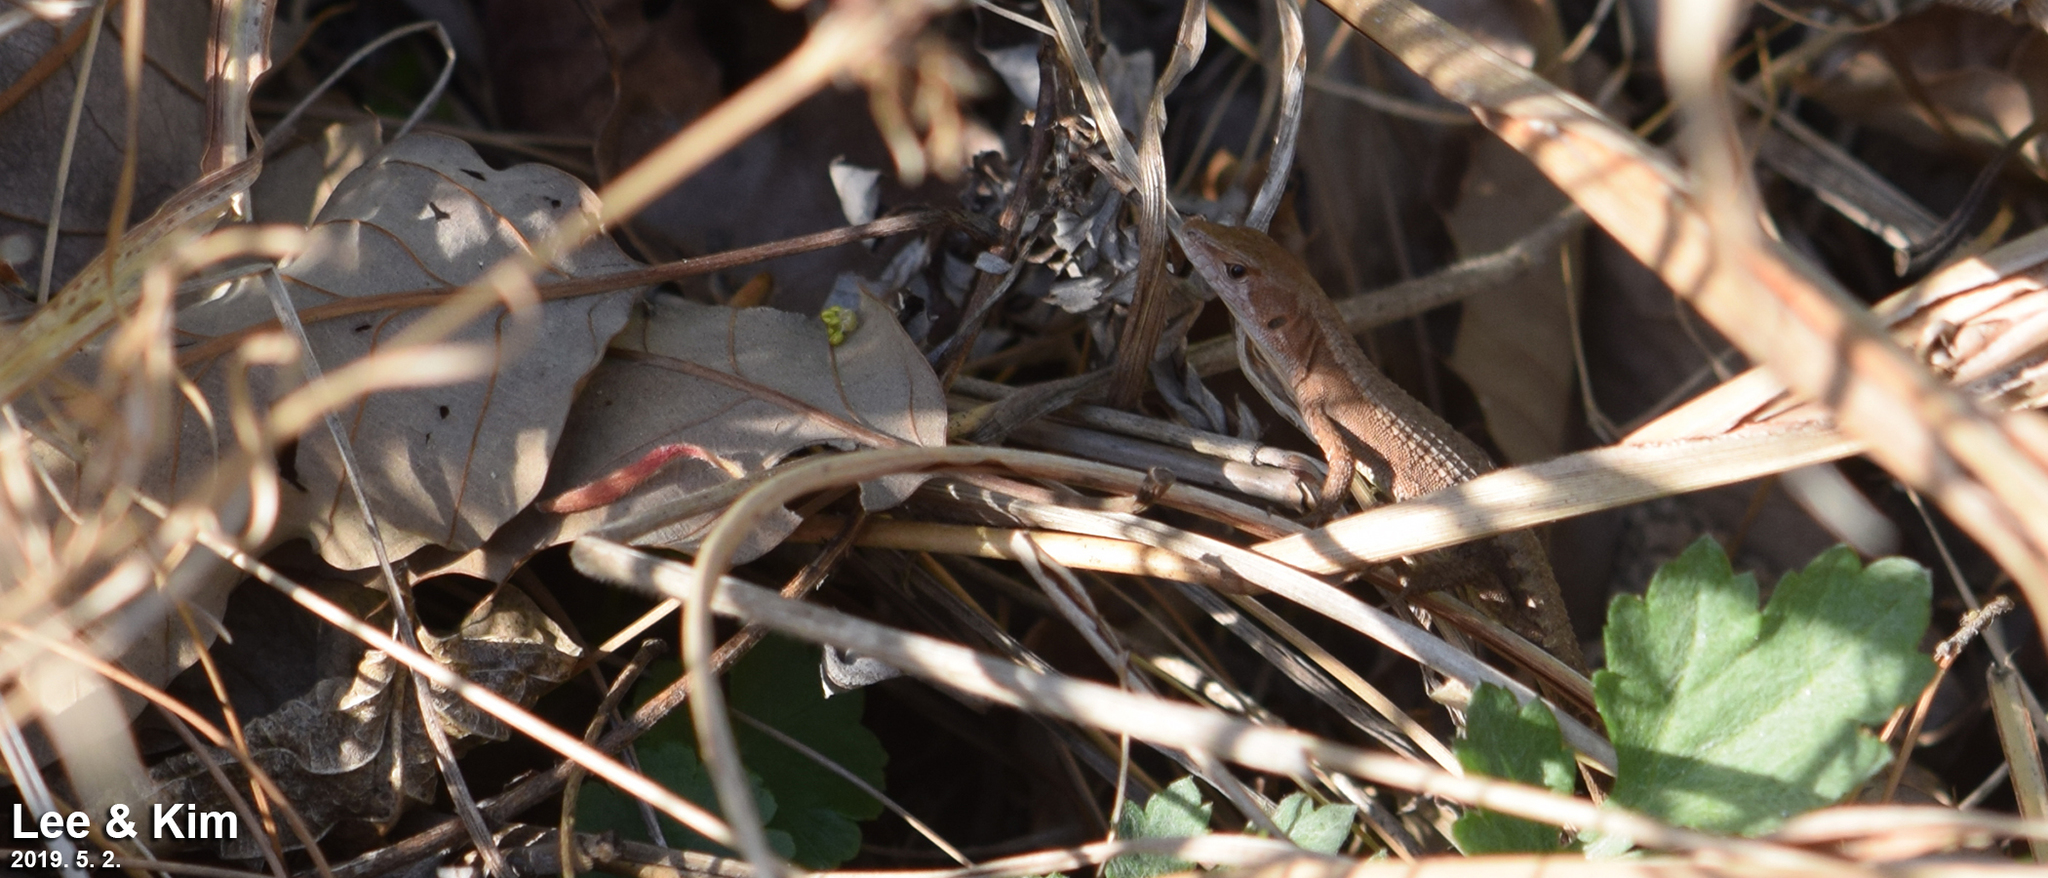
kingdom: Animalia
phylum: Chordata
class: Squamata
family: Lacertidae
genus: Takydromus
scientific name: Takydromus amurensis
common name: Amur grass lizard
